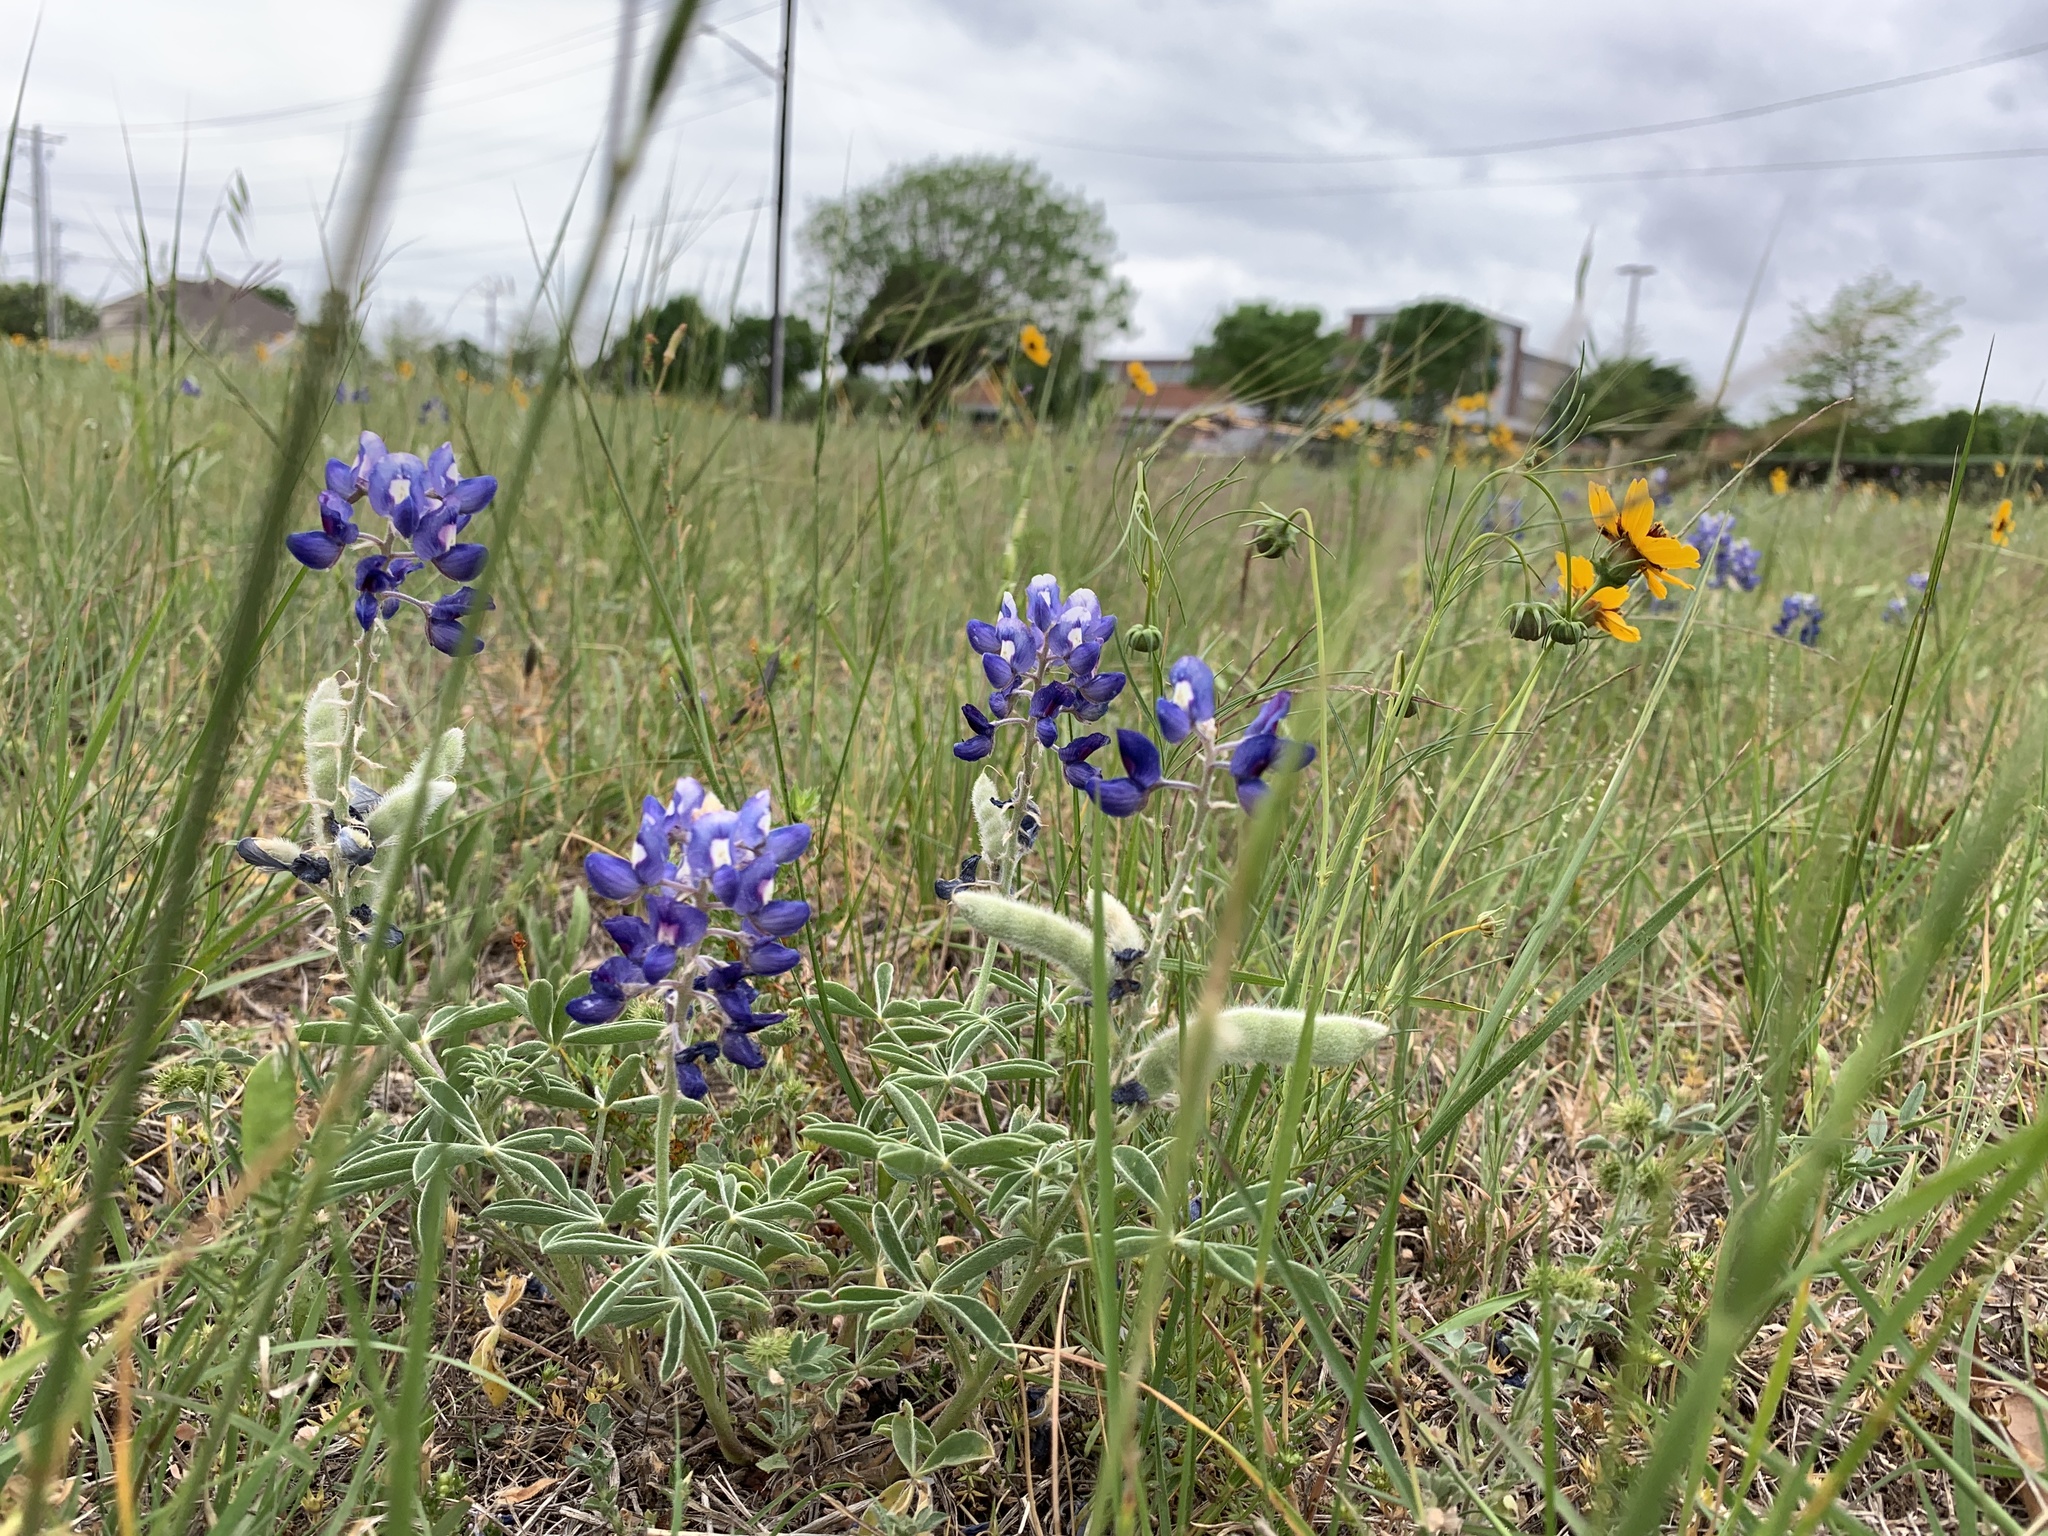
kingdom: Plantae
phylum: Tracheophyta
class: Magnoliopsida
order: Fabales
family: Fabaceae
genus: Lupinus
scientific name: Lupinus texensis
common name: Texas bluebonnet
